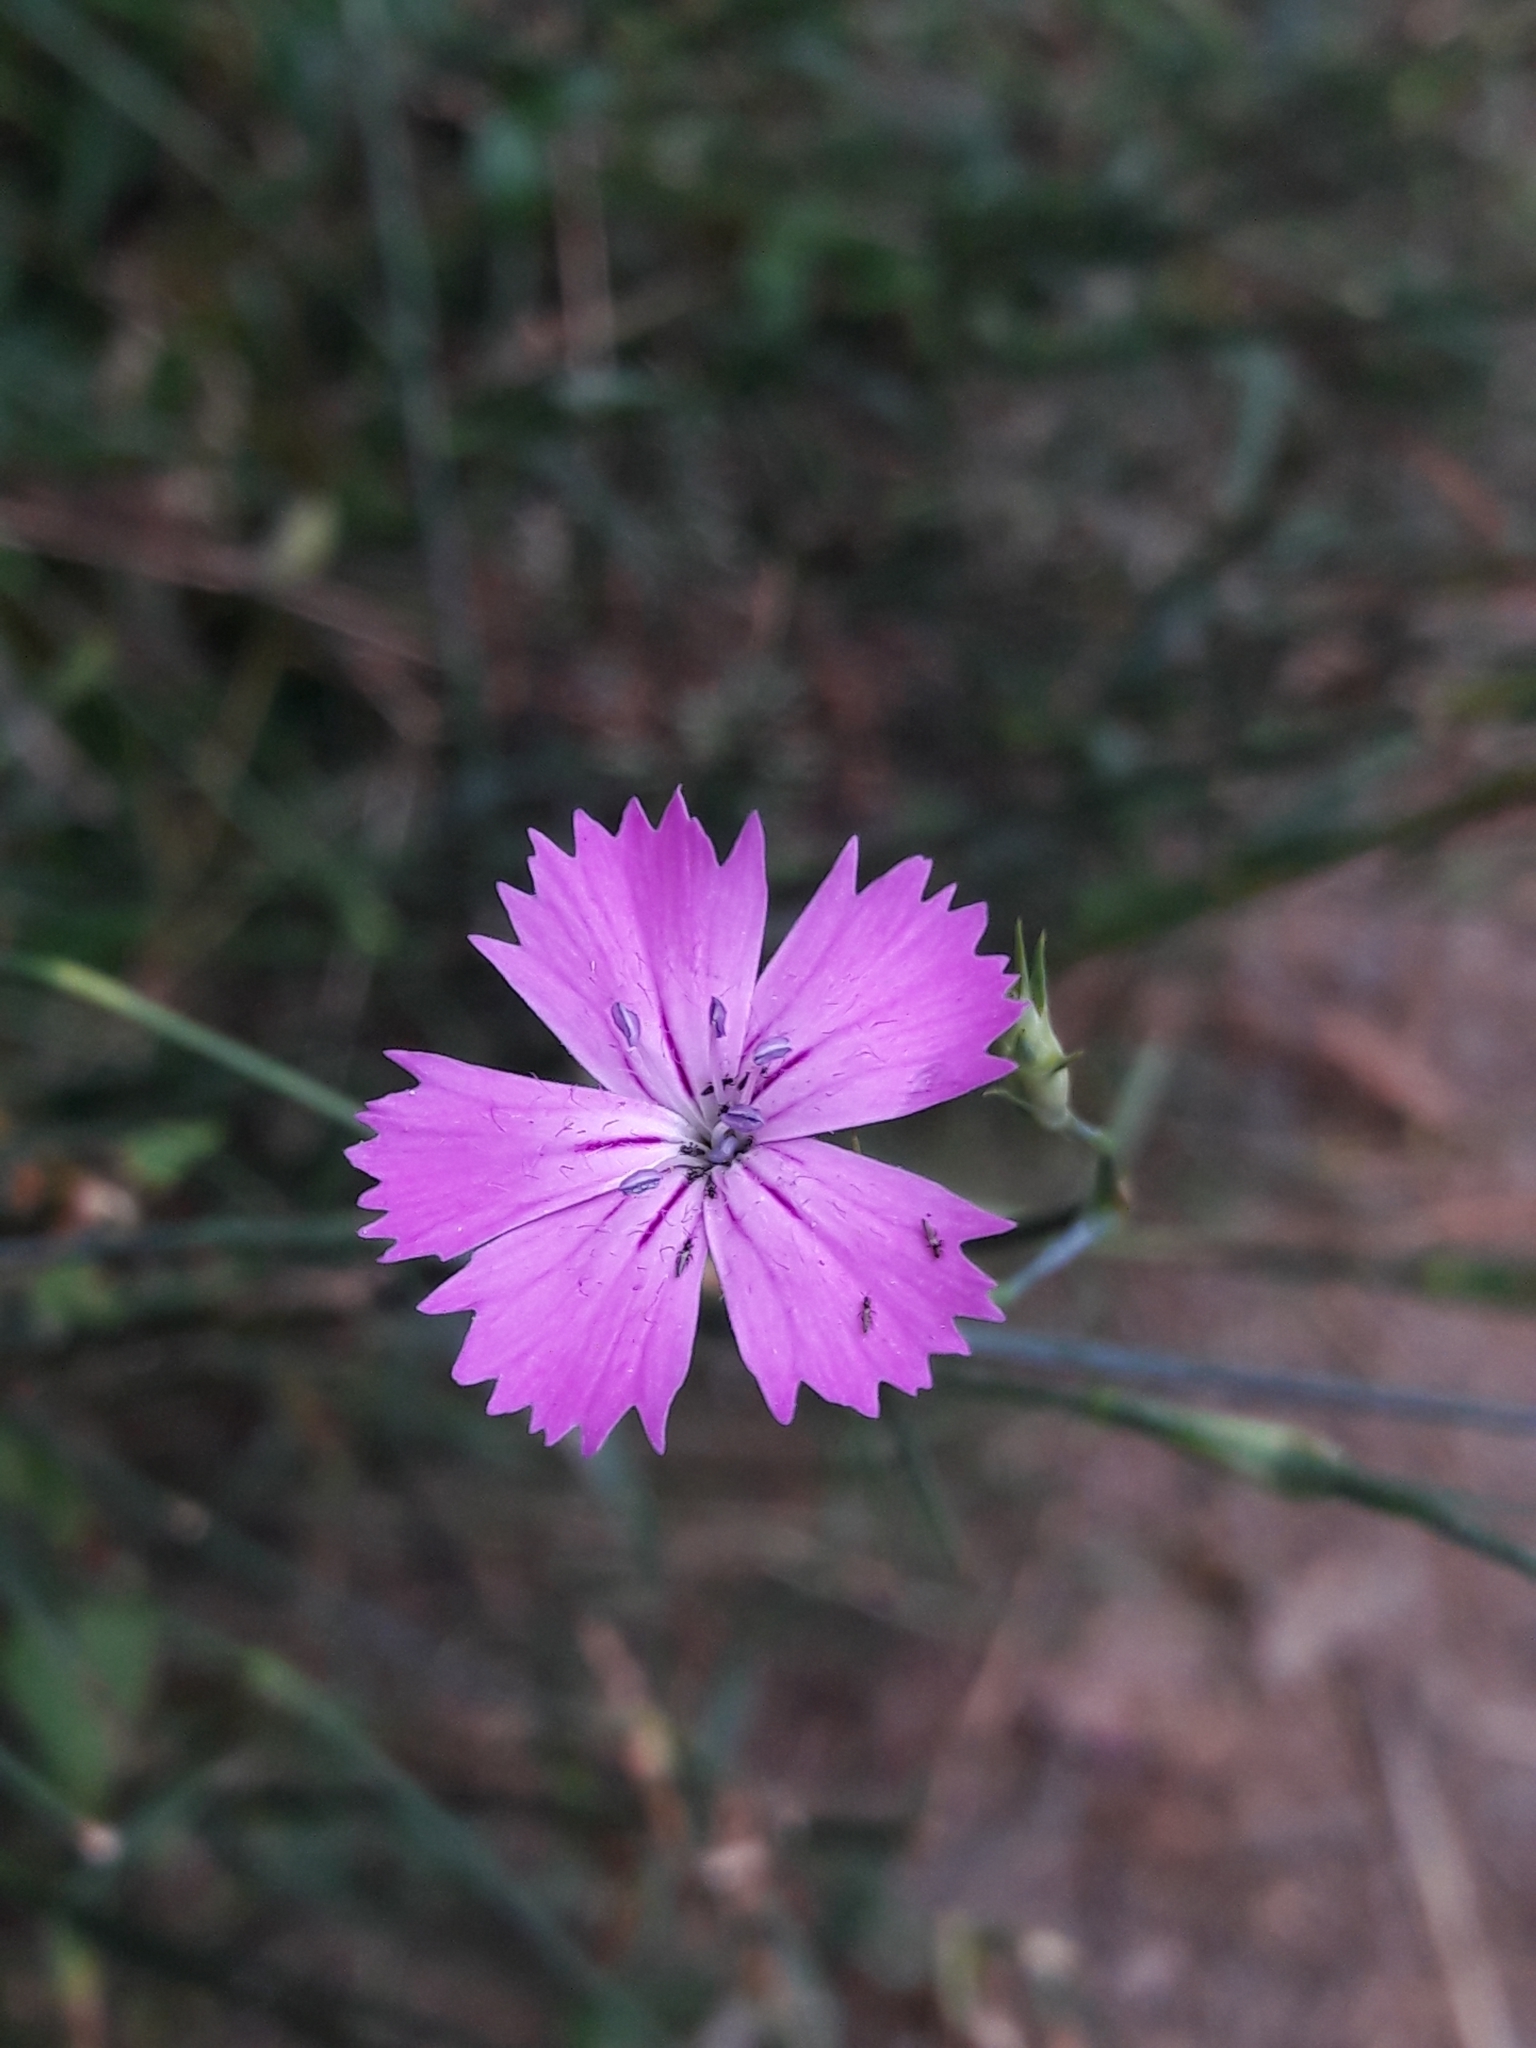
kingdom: Plantae
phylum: Tracheophyta
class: Magnoliopsida
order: Caryophyllales
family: Caryophyllaceae
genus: Dianthus
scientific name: Dianthus carthusianorum
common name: Carthusian pink
